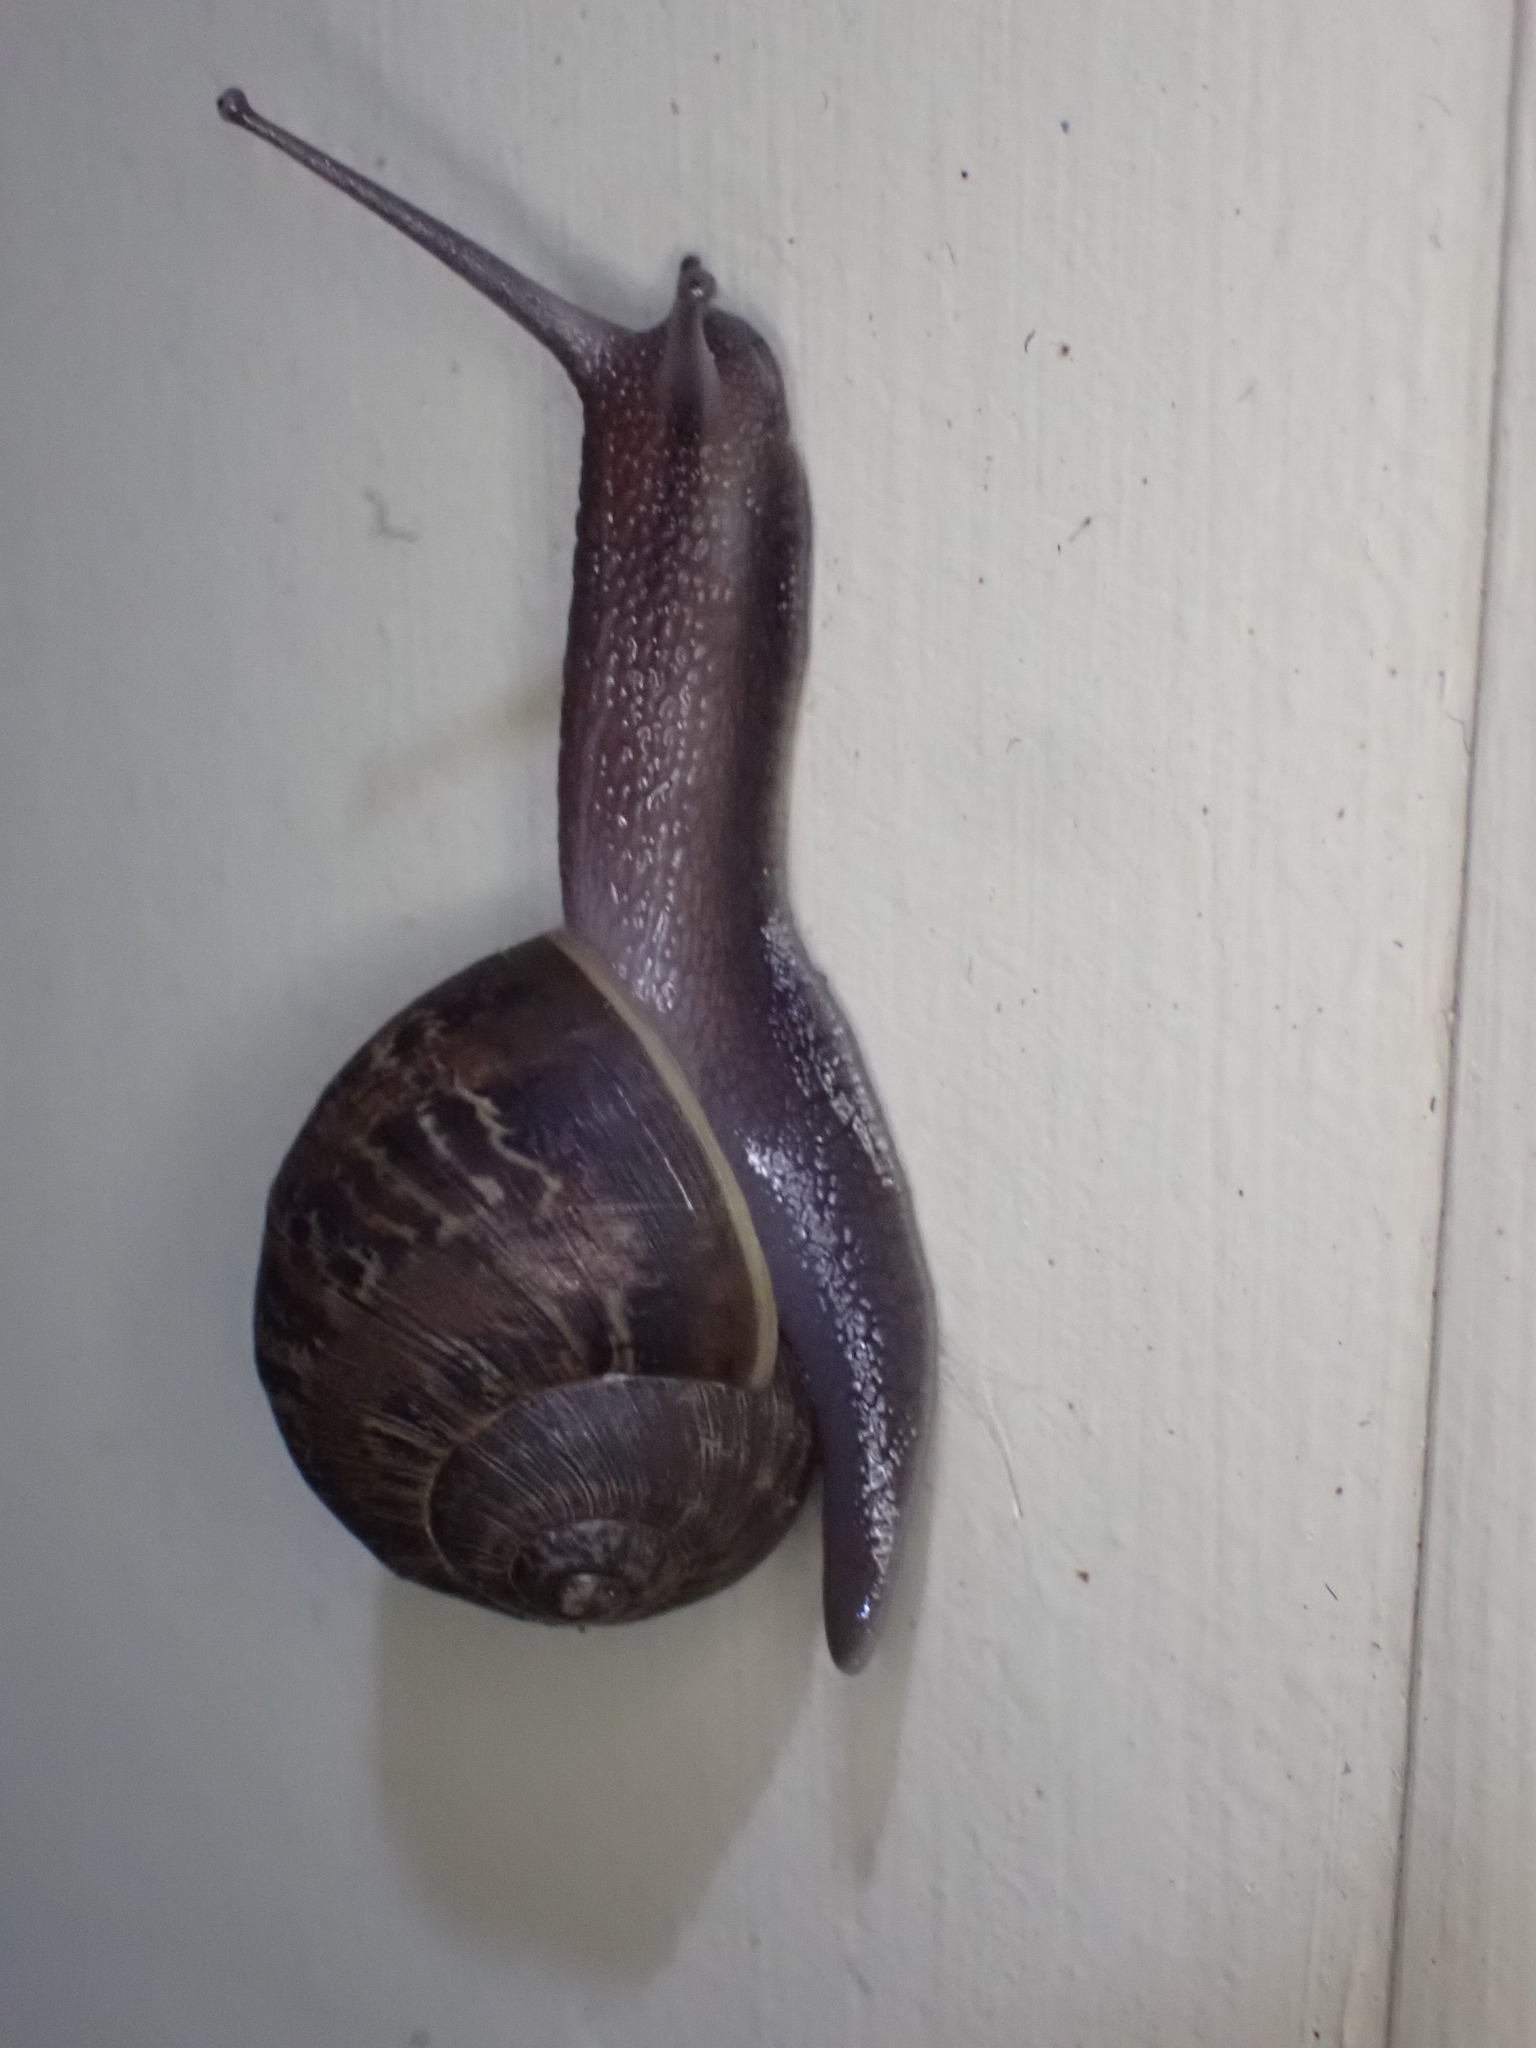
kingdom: Animalia
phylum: Mollusca
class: Gastropoda
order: Stylommatophora
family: Helicidae
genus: Cornu
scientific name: Cornu aspersum
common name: Brown garden snail
